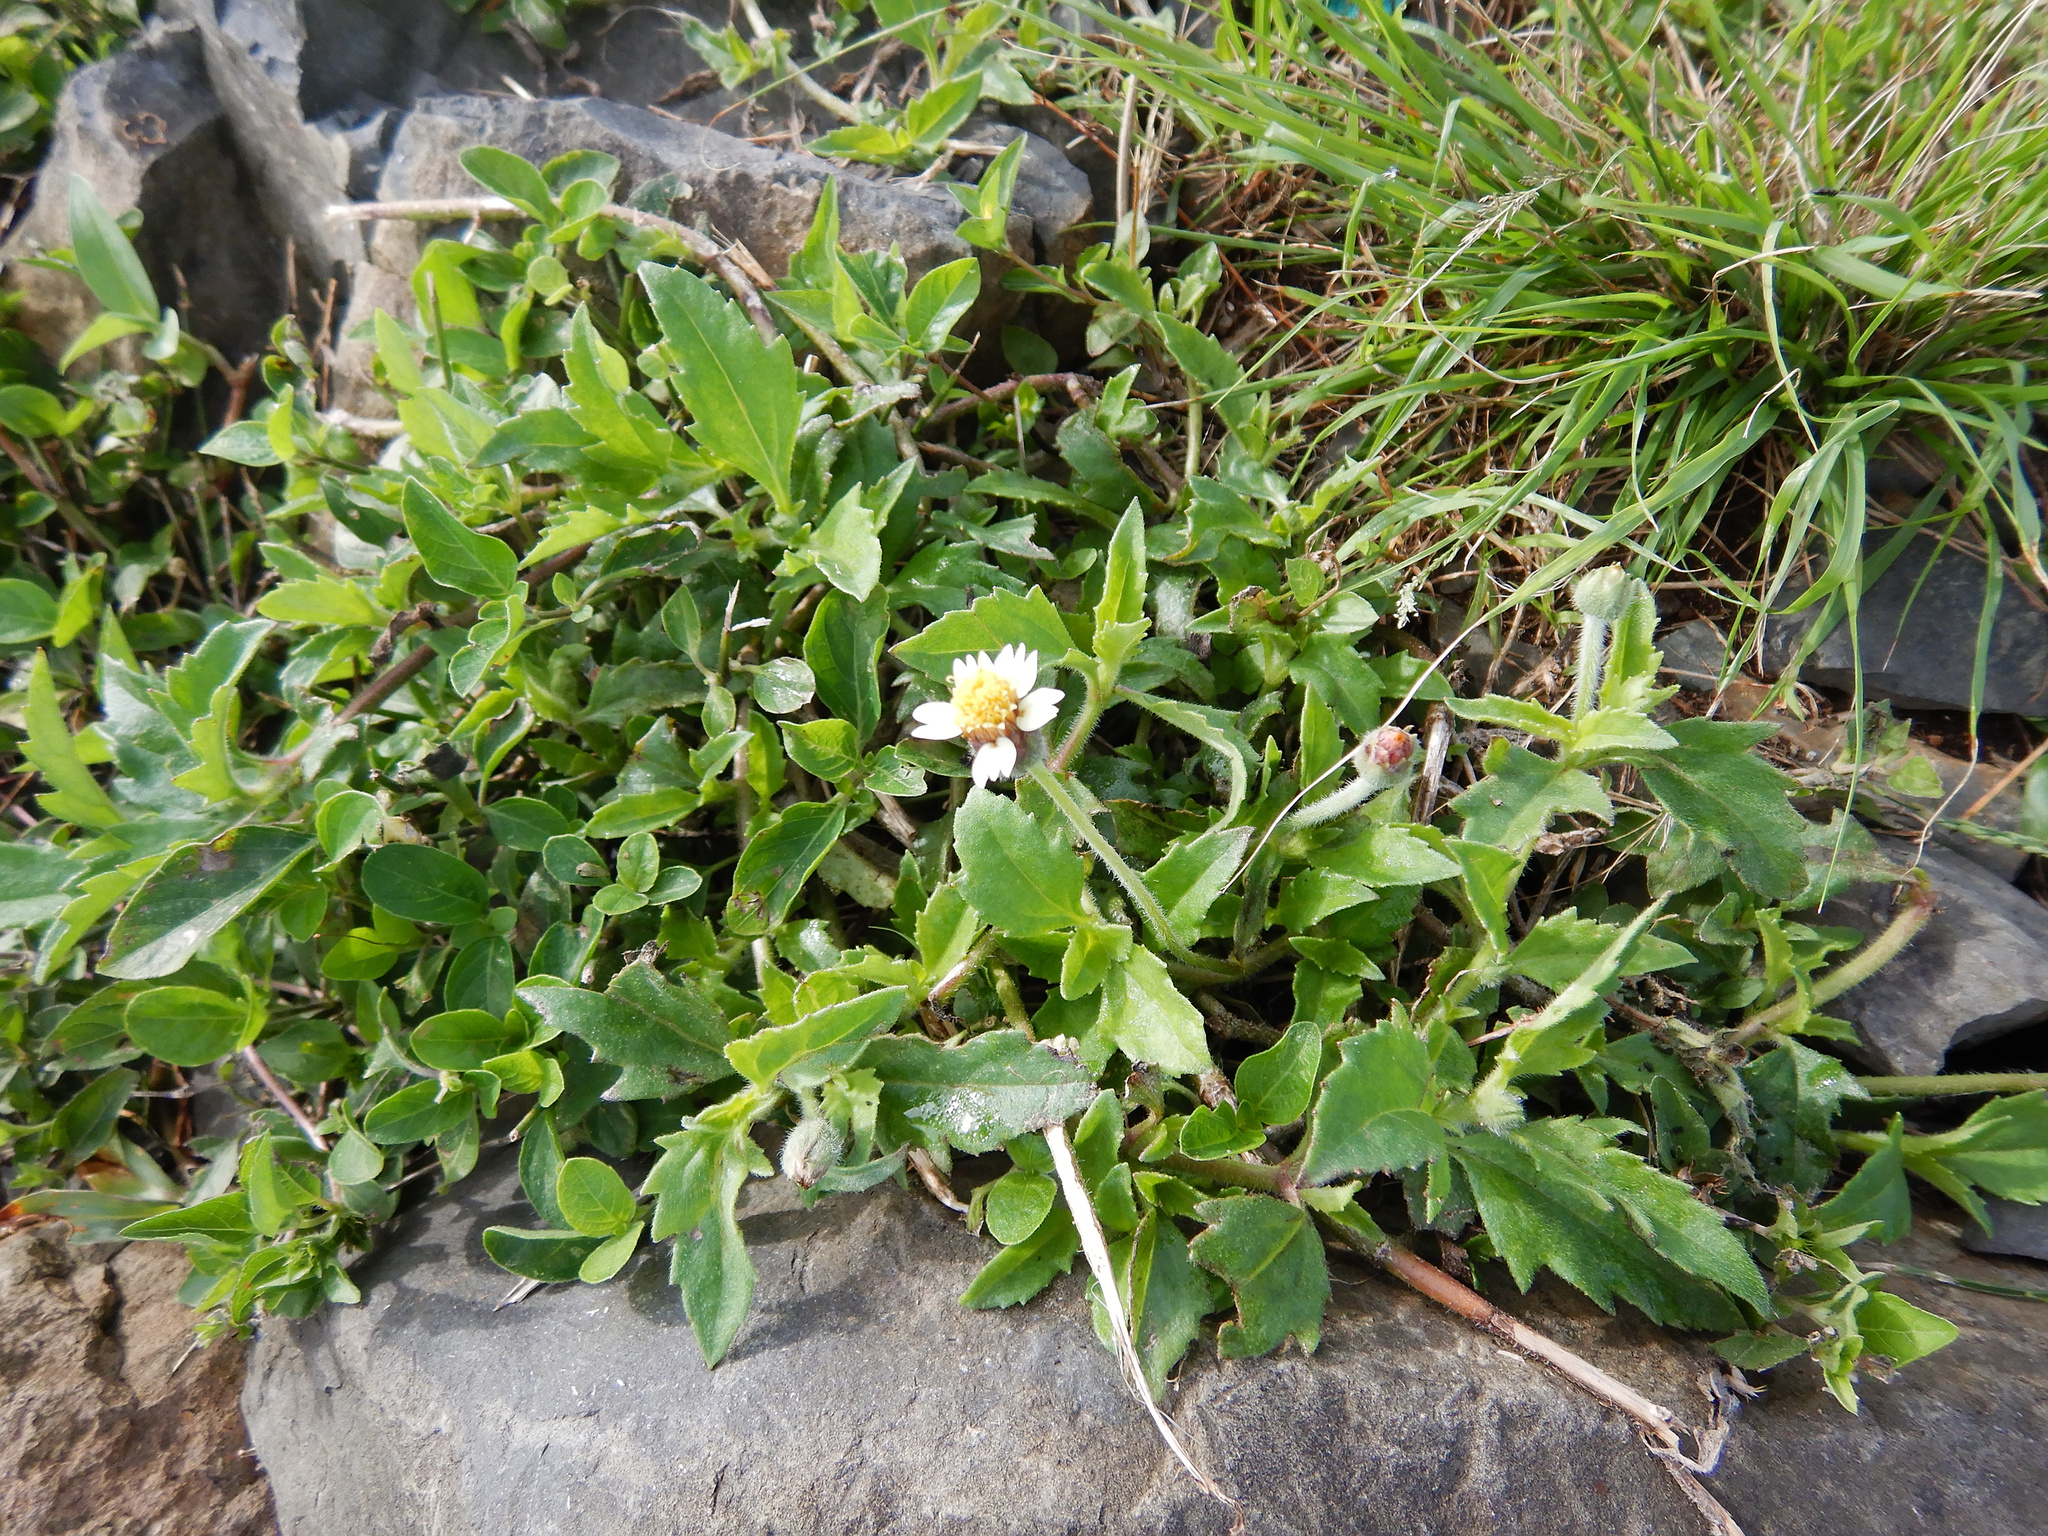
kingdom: Plantae
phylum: Tracheophyta
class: Magnoliopsida
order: Asterales
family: Asteraceae
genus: Tridax
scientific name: Tridax procumbens
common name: Coatbuttons
